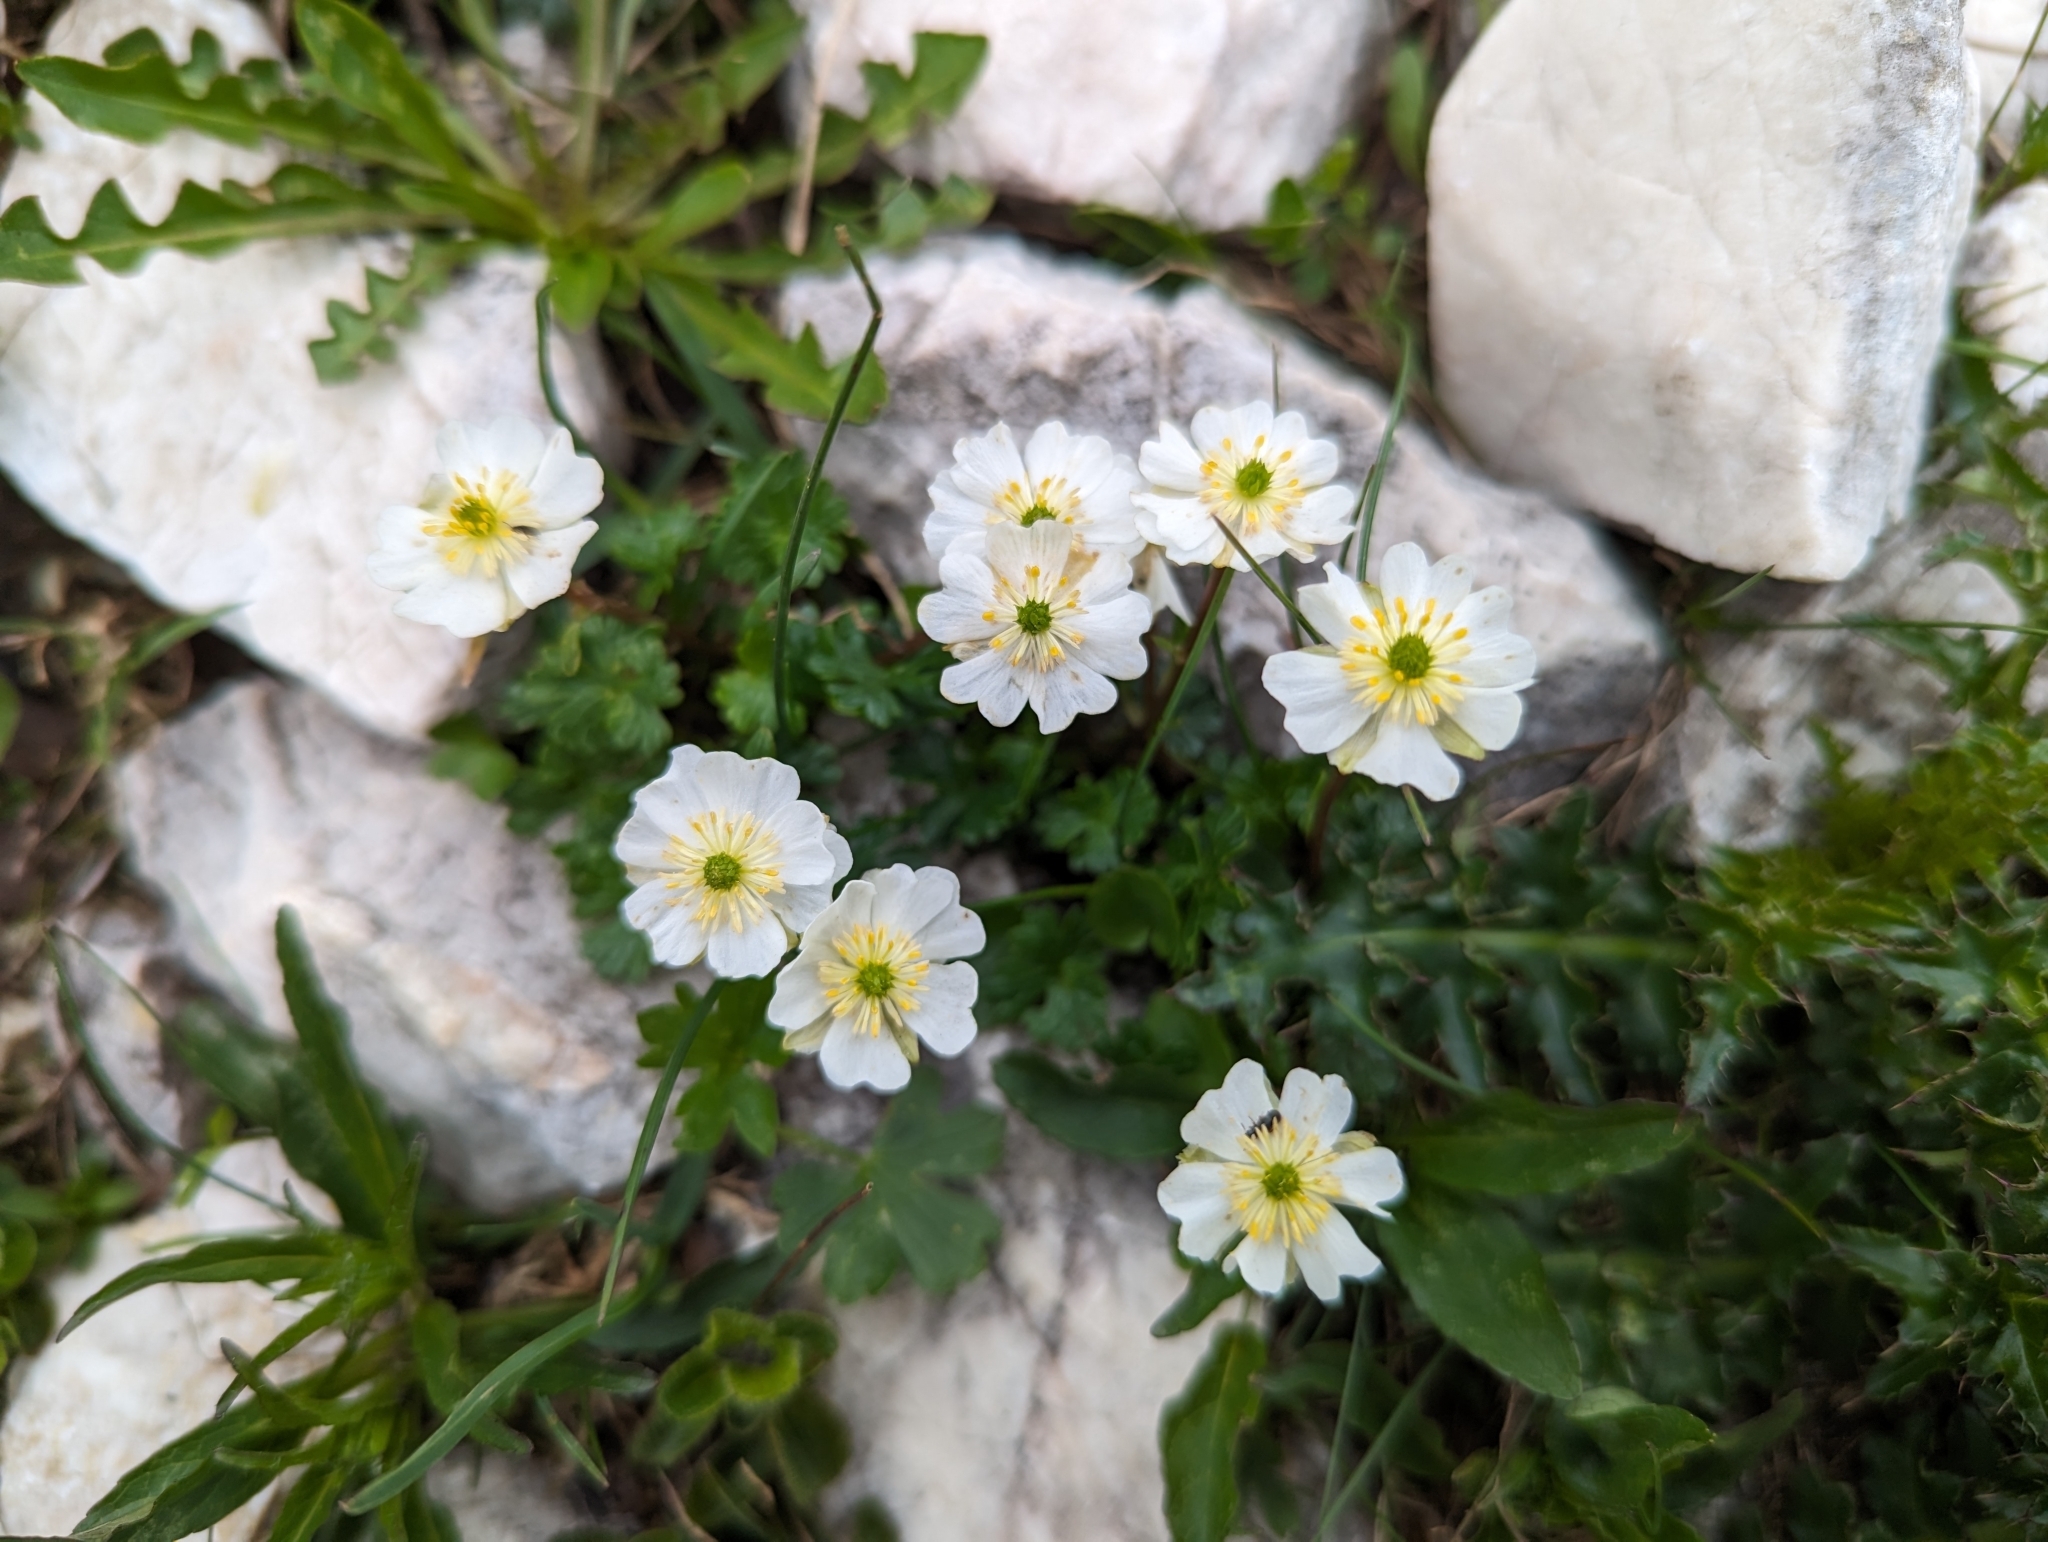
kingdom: Plantae
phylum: Tracheophyta
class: Magnoliopsida
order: Ranunculales
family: Ranunculaceae
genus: Ranunculus
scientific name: Ranunculus alpestris
